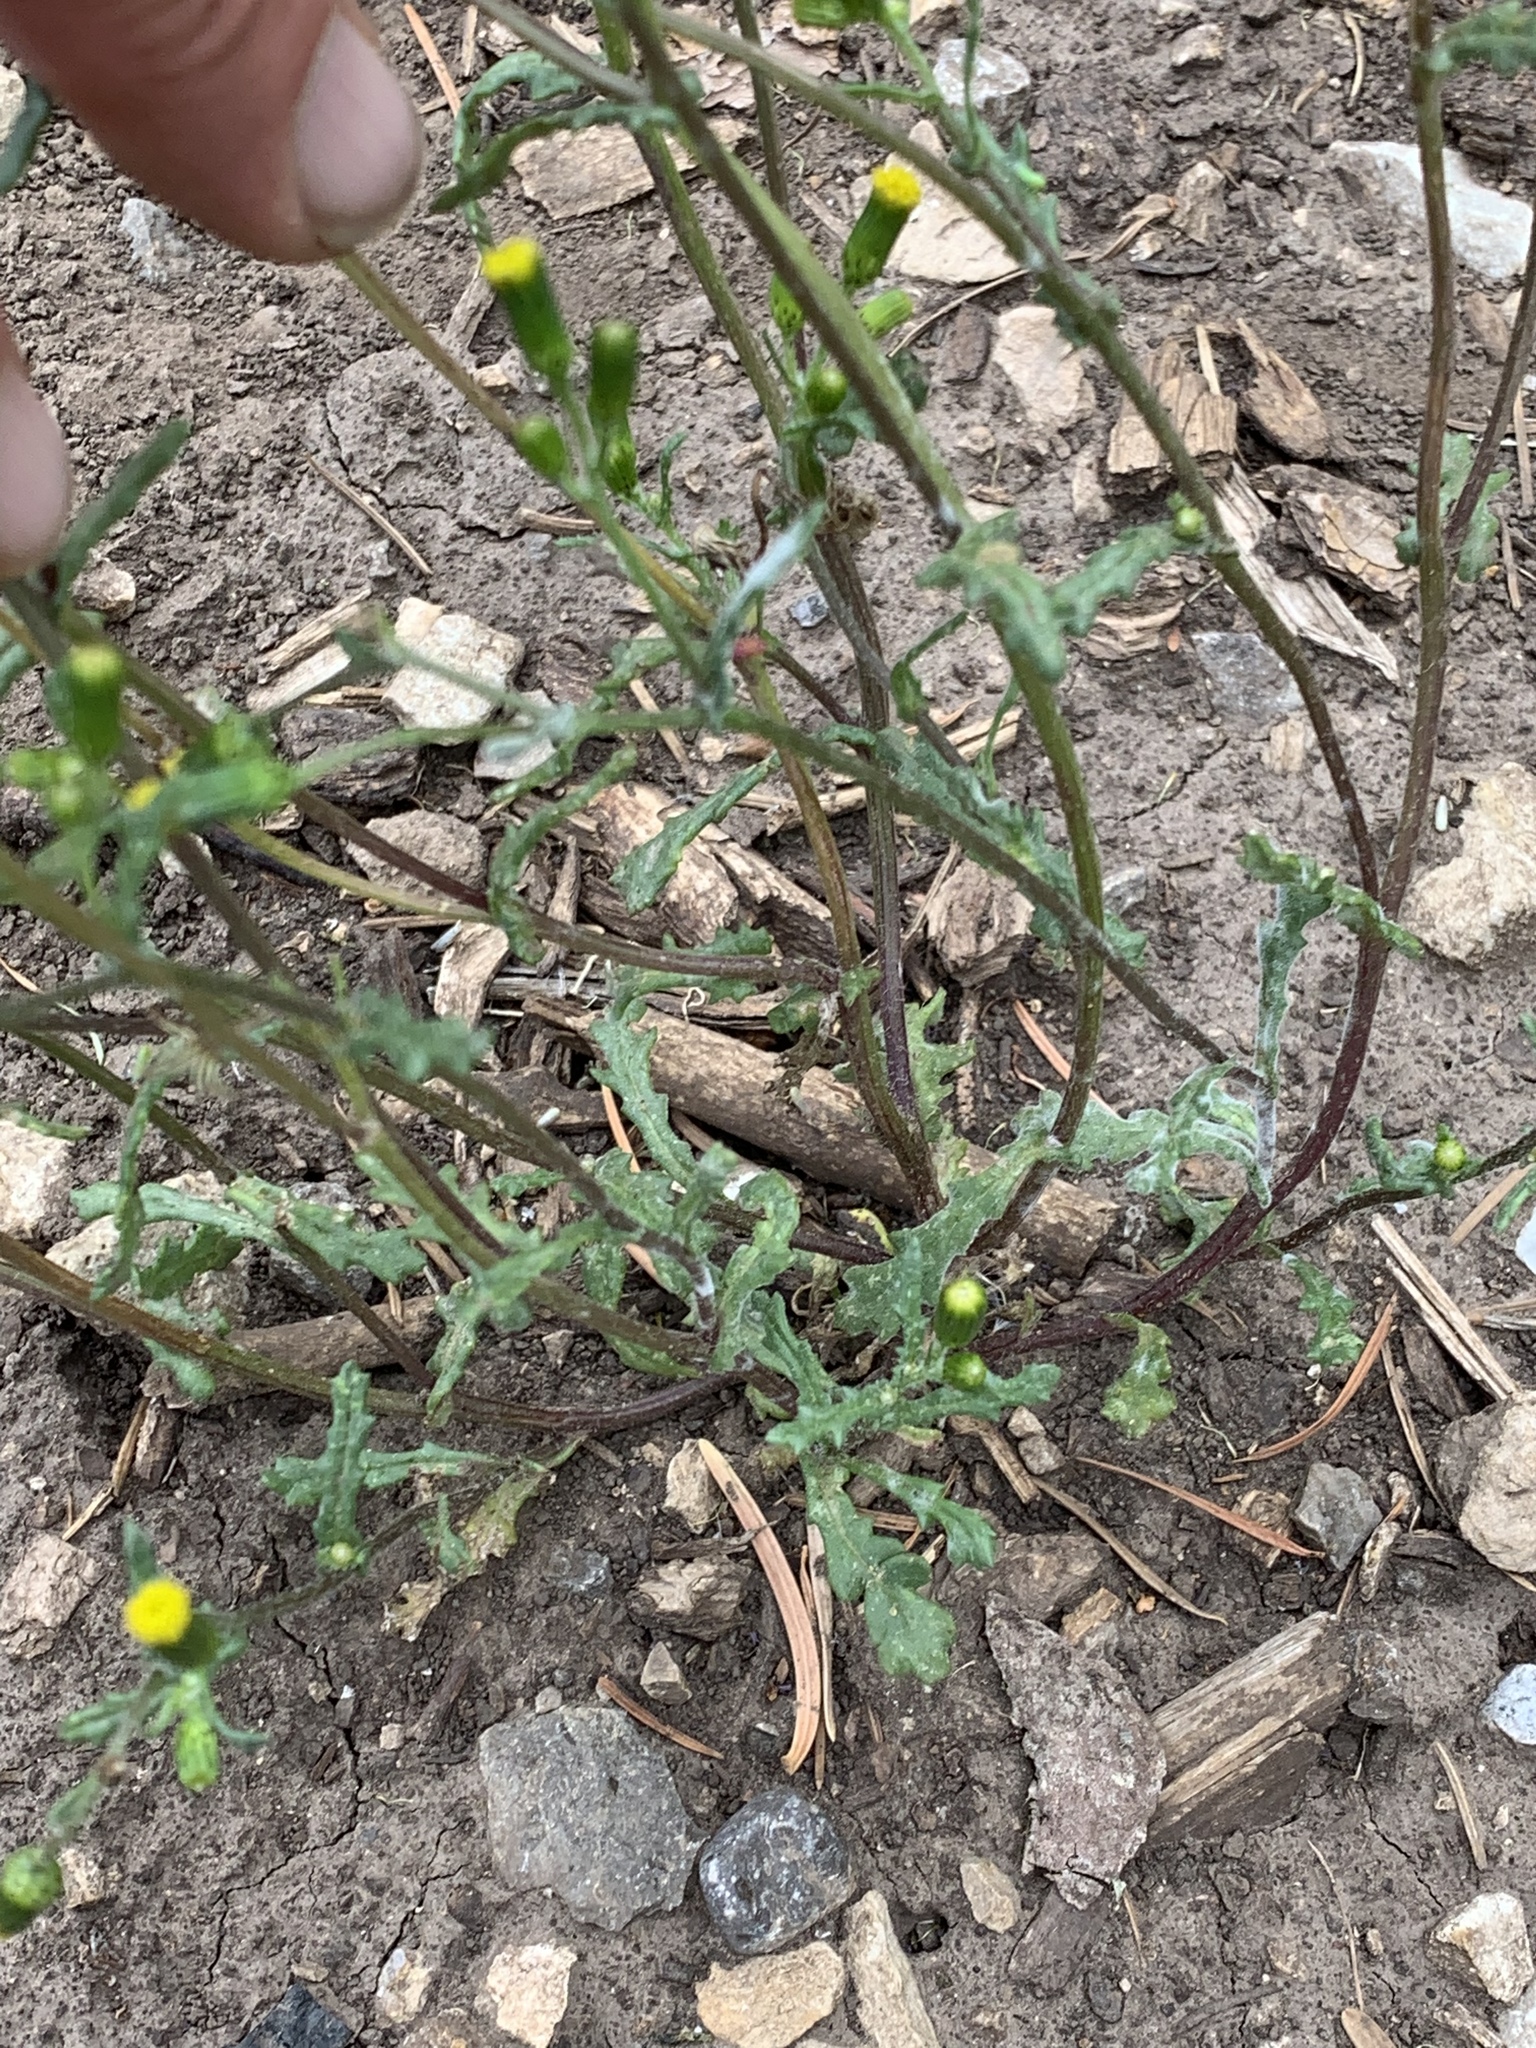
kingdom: Plantae
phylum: Tracheophyta
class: Magnoliopsida
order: Asterales
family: Asteraceae
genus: Senecio
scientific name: Senecio vulgaris
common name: Old-man-in-the-spring
